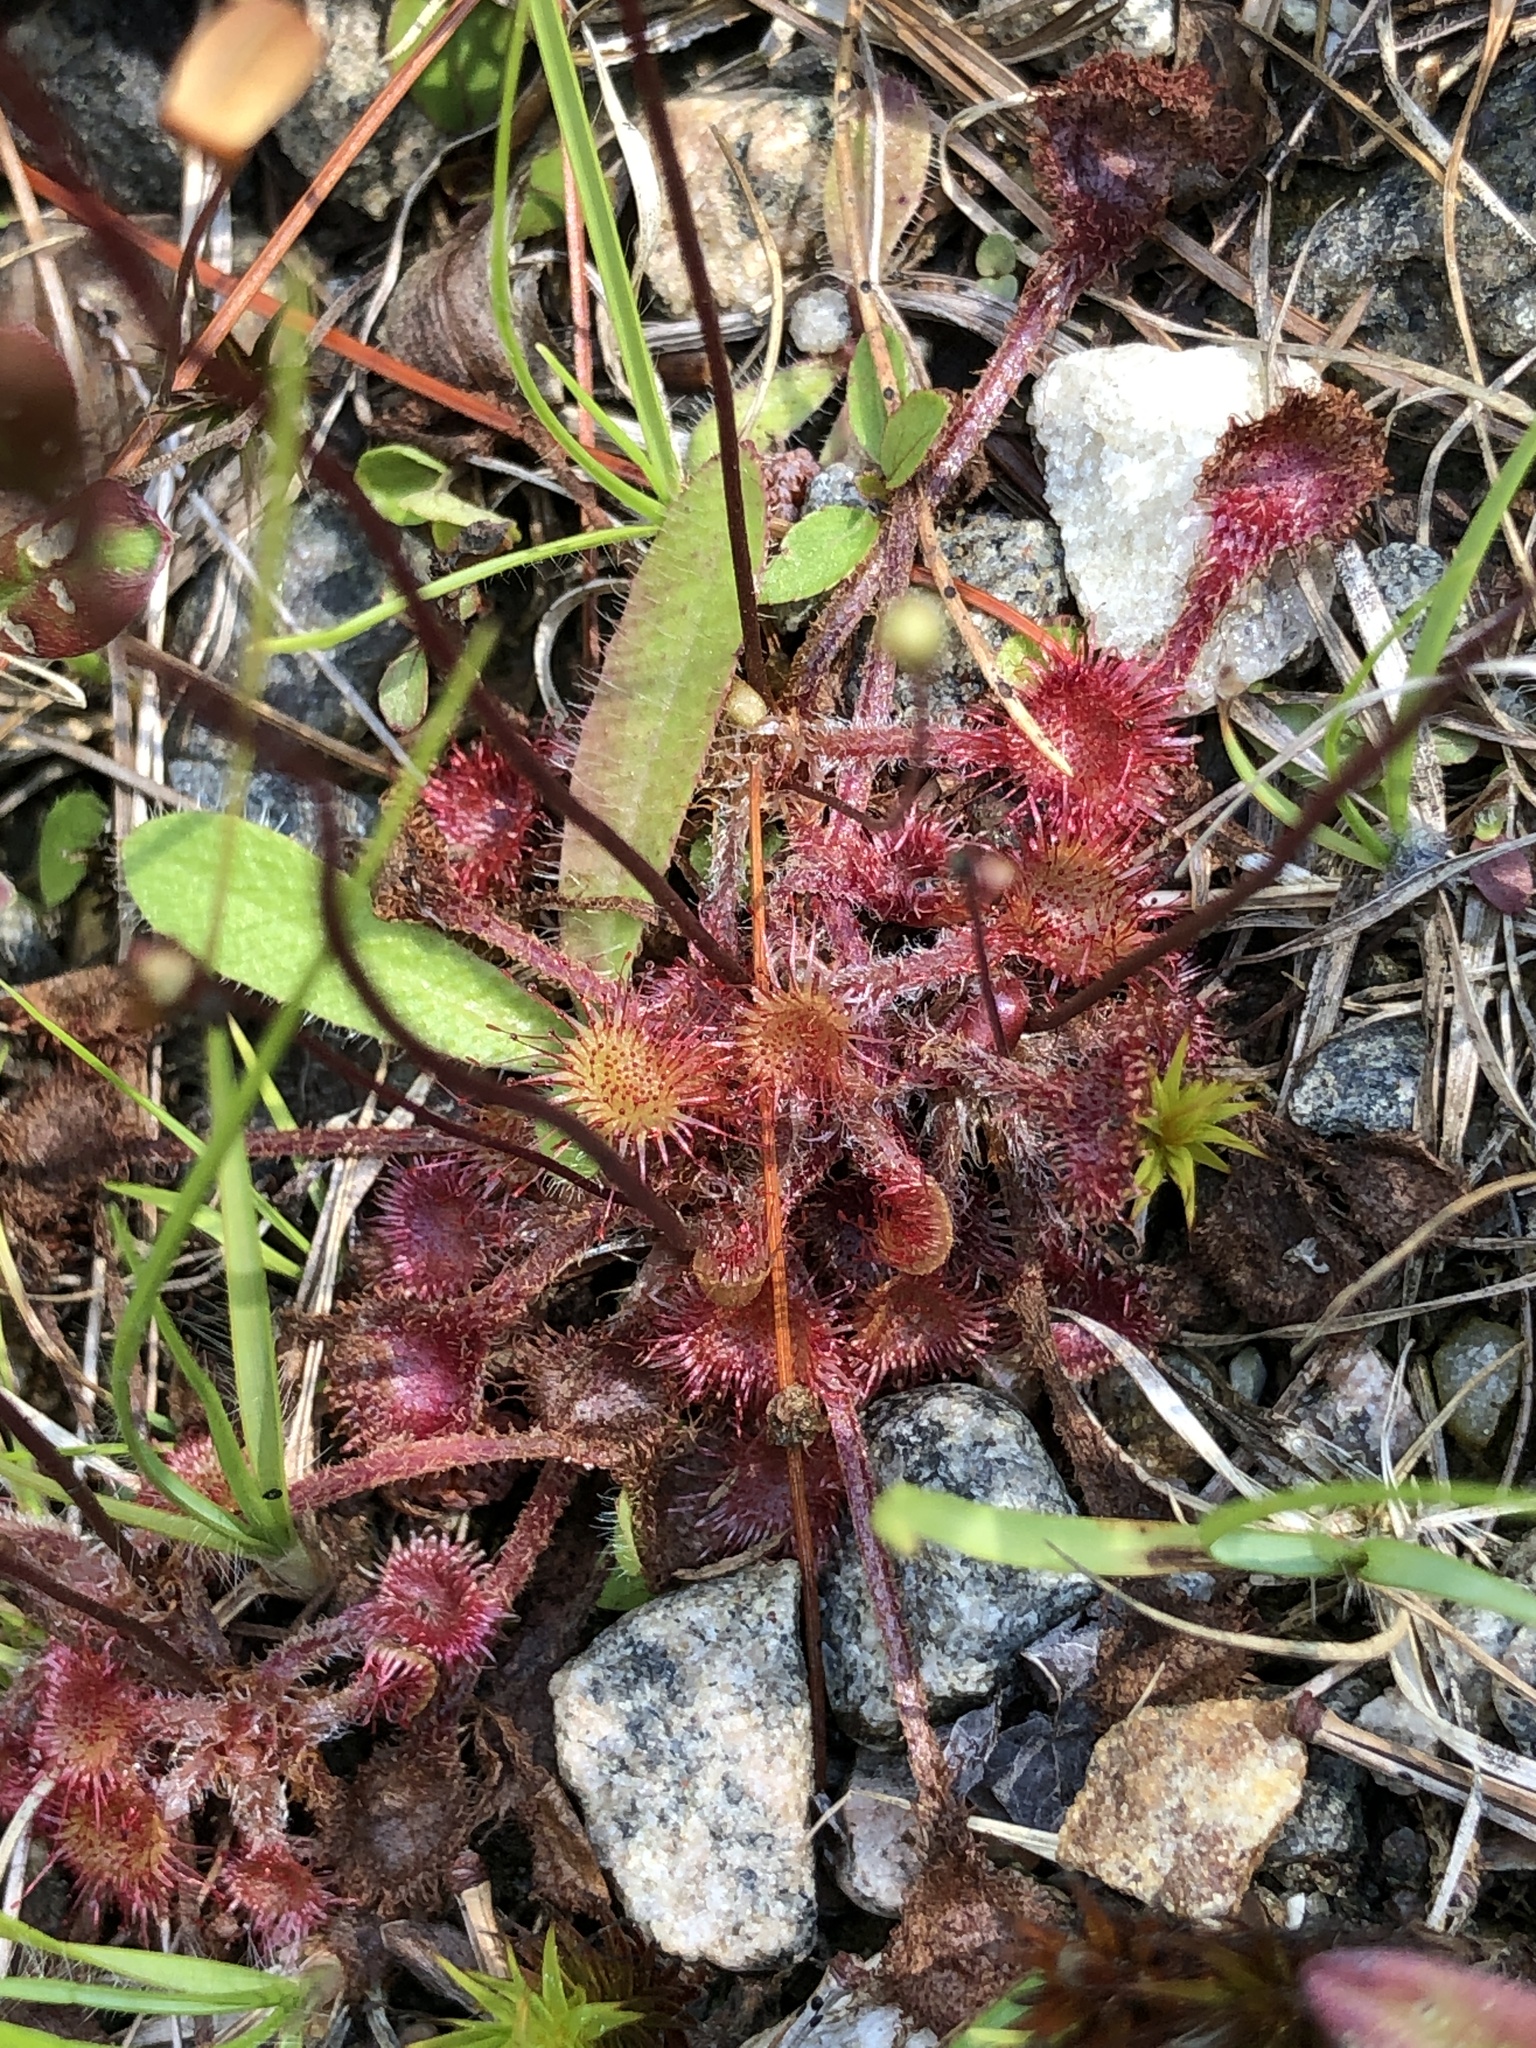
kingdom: Plantae
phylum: Tracheophyta
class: Magnoliopsida
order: Caryophyllales
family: Droseraceae
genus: Drosera
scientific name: Drosera rotundifolia
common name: Round-leaved sundew
